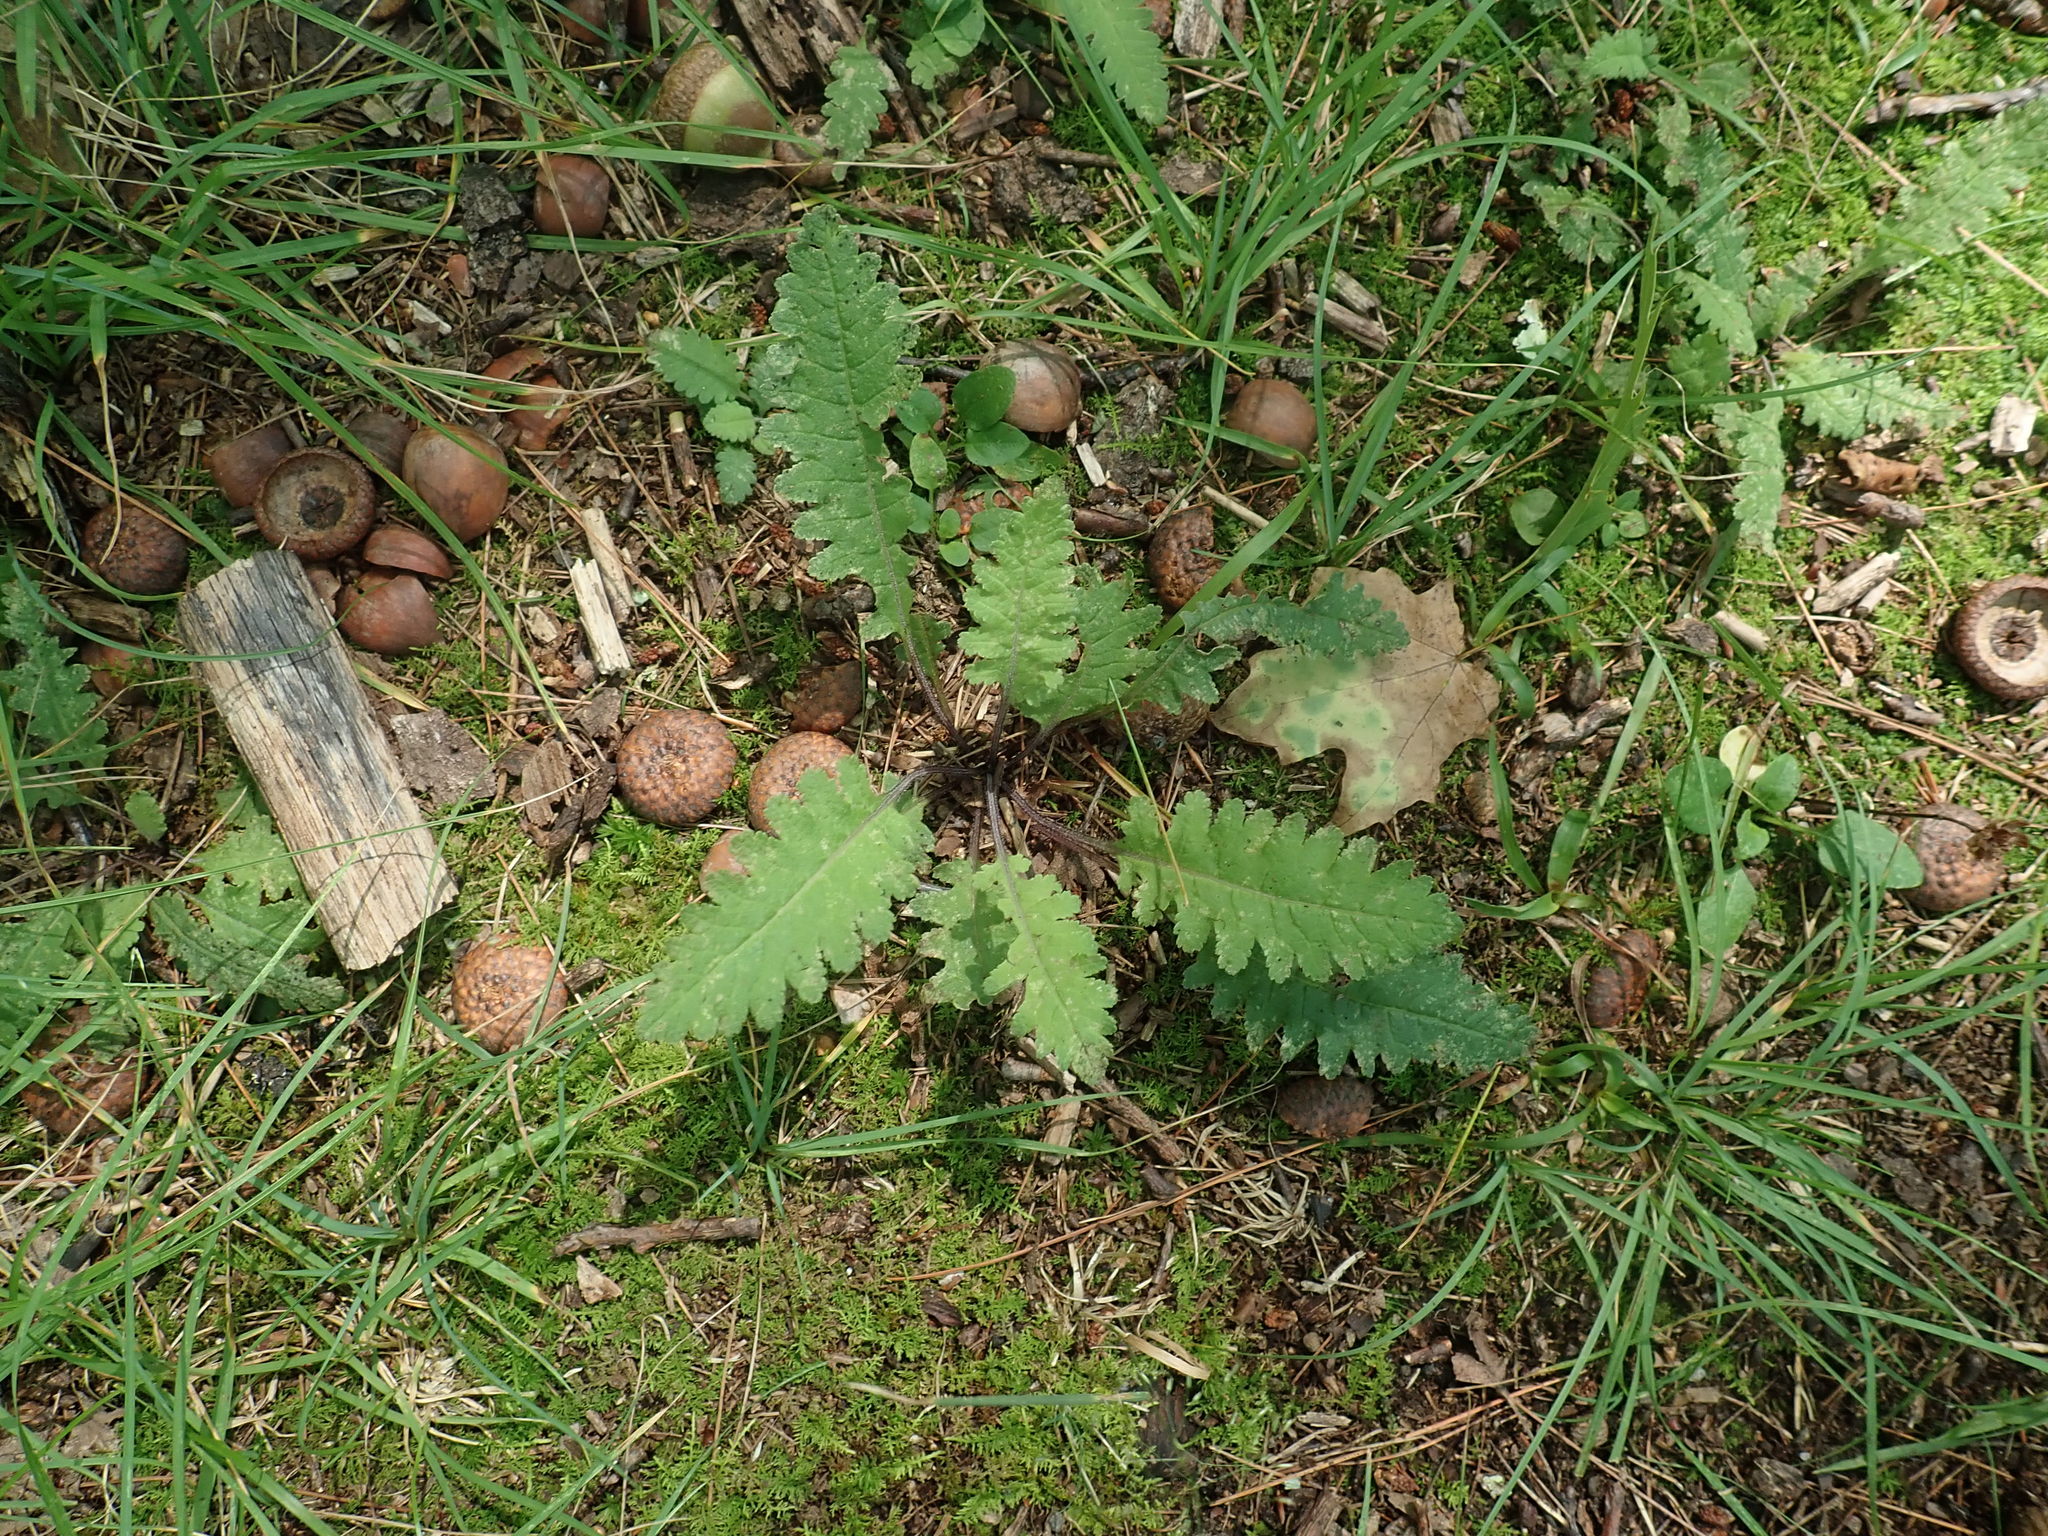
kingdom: Plantae
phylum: Tracheophyta
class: Magnoliopsida
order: Lamiales
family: Orobanchaceae
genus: Pedicularis
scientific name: Pedicularis canadensis
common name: Early lousewort
